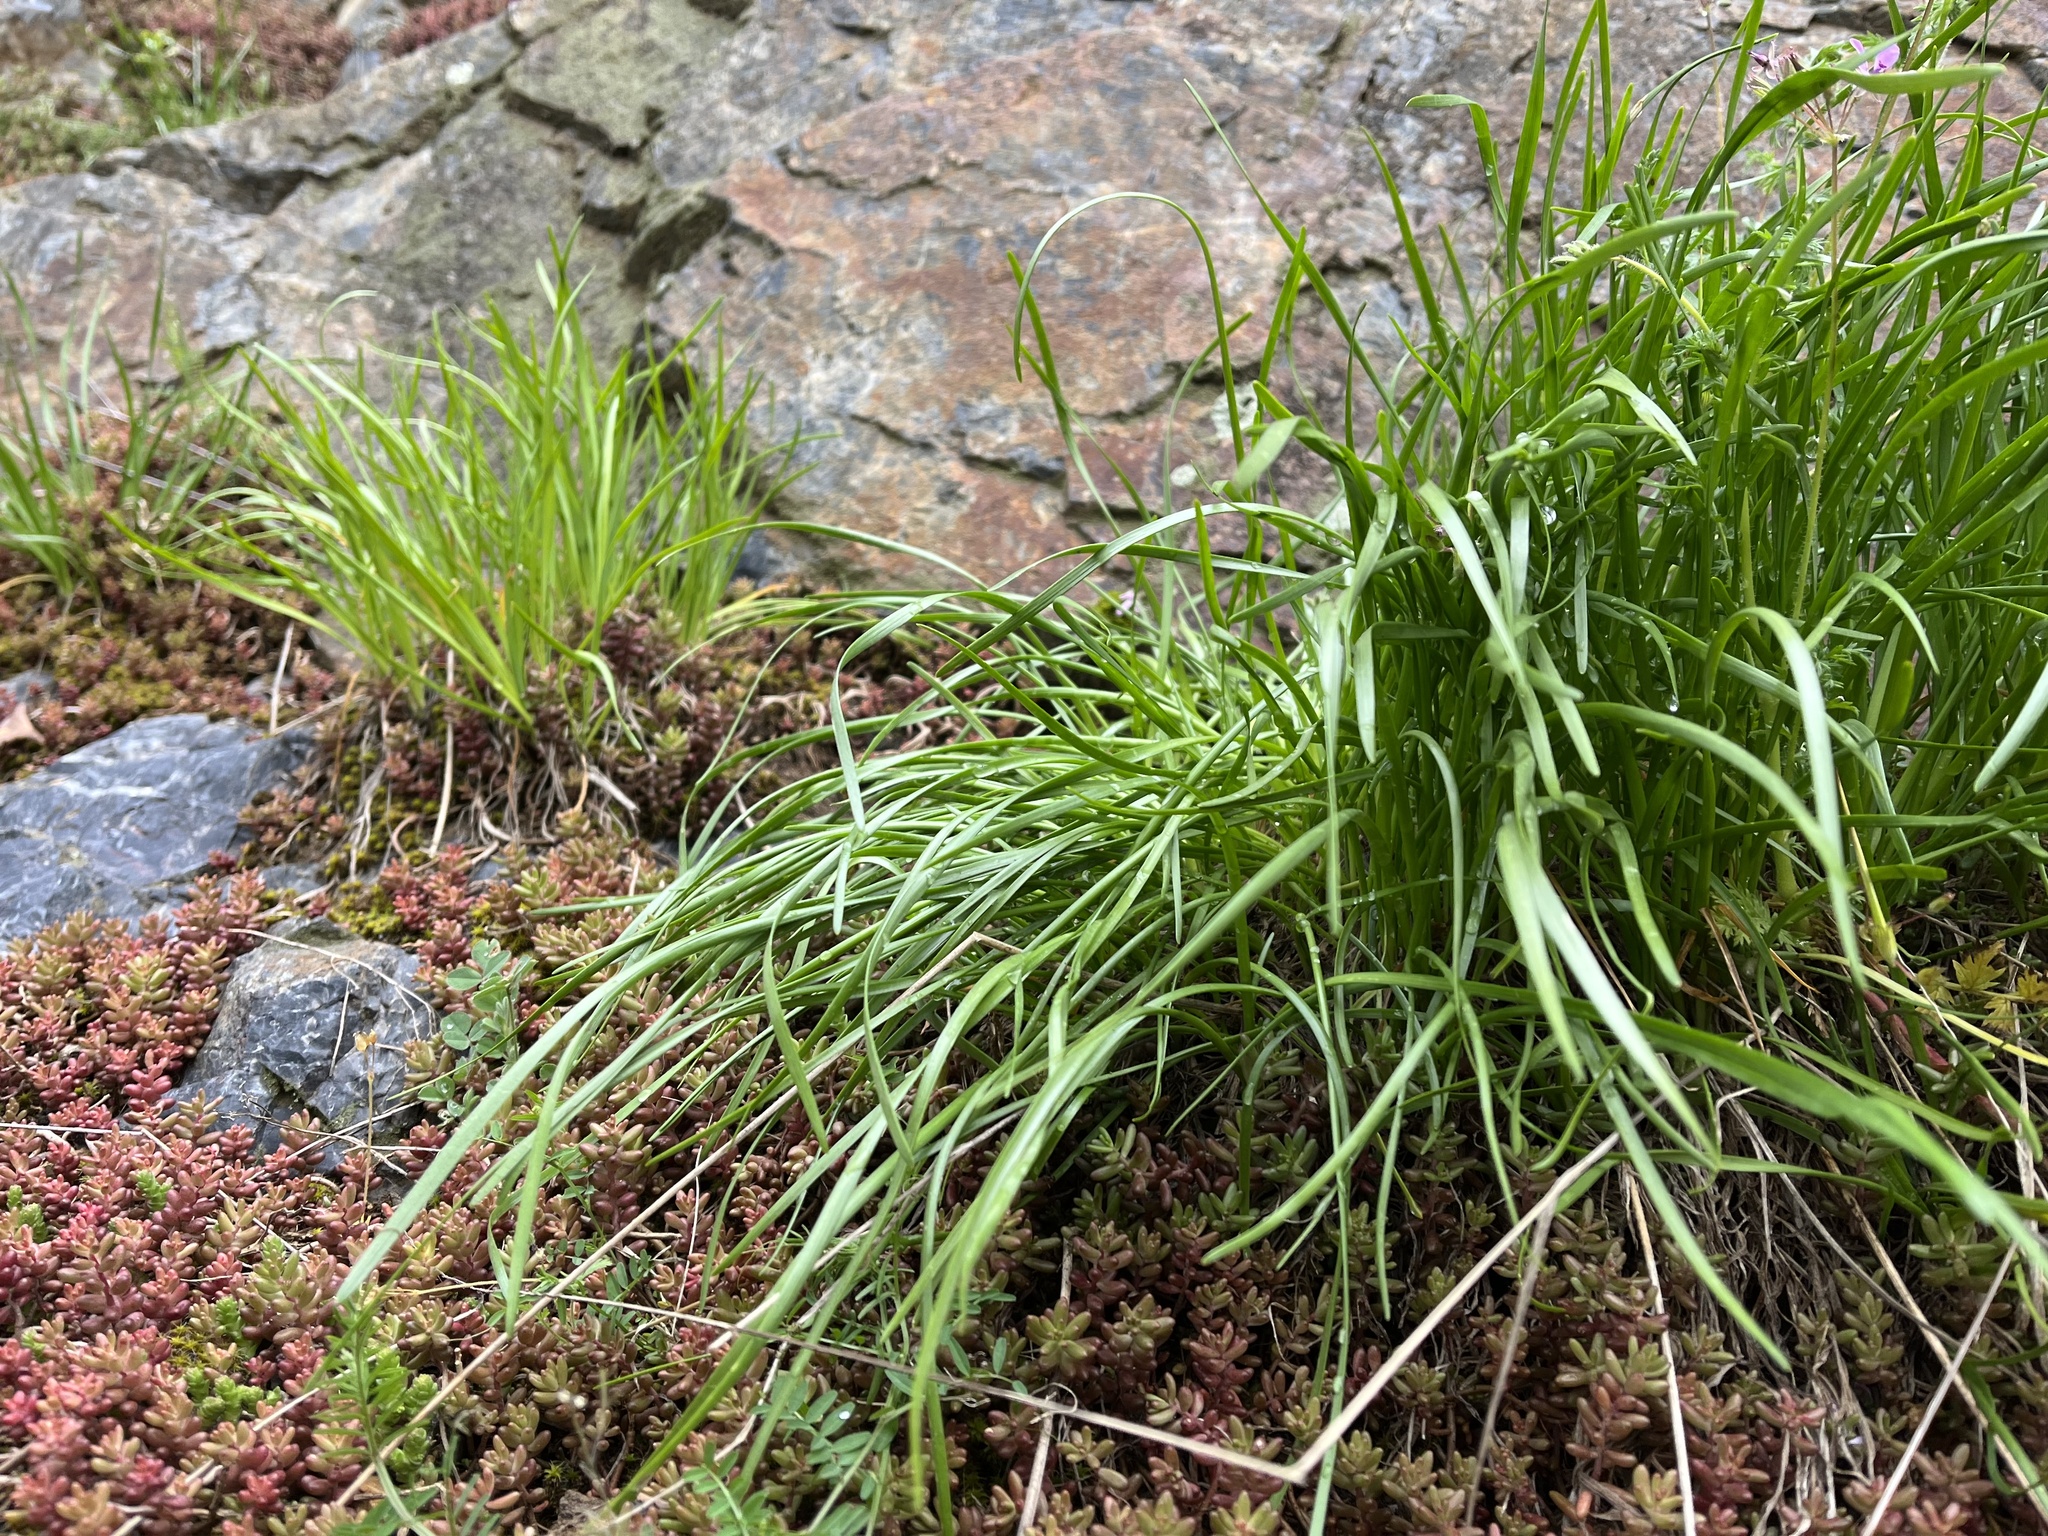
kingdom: Plantae
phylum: Tracheophyta
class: Liliopsida
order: Asparagales
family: Amaryllidaceae
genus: Allium
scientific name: Allium lusitanicum
